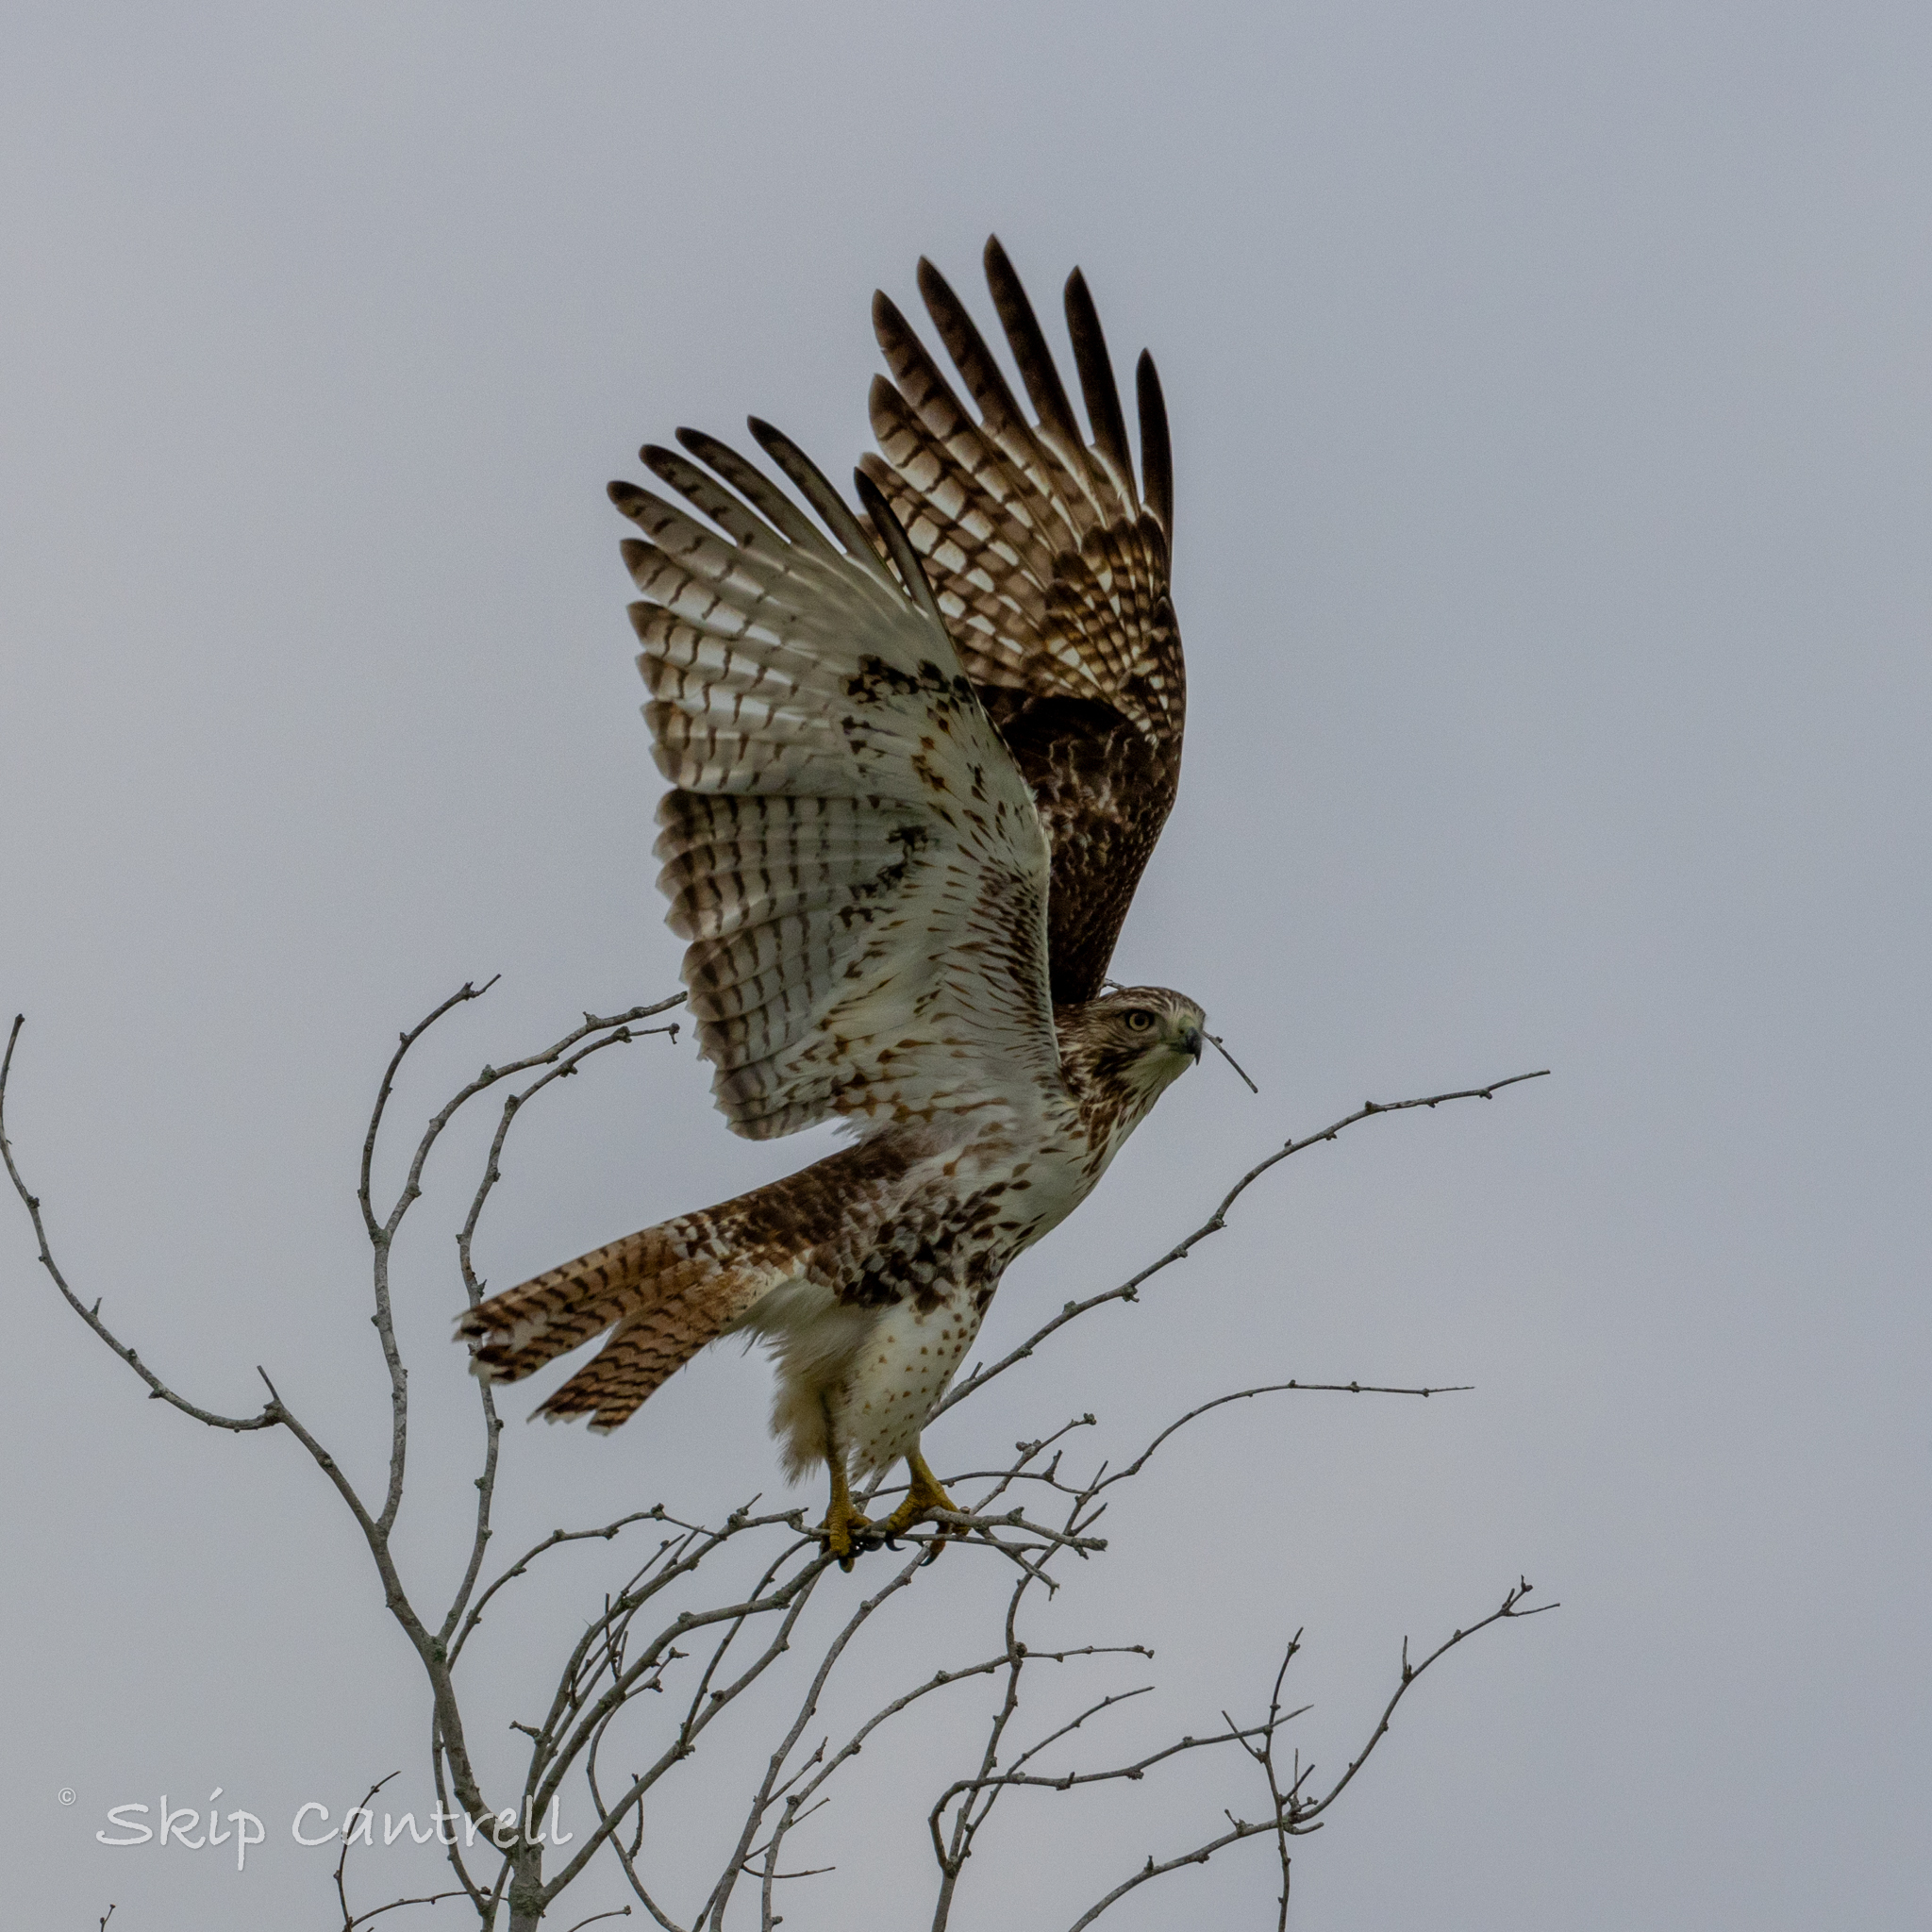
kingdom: Animalia
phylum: Chordata
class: Aves
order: Accipitriformes
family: Accipitridae
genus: Buteo
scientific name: Buteo jamaicensis
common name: Red-tailed hawk
